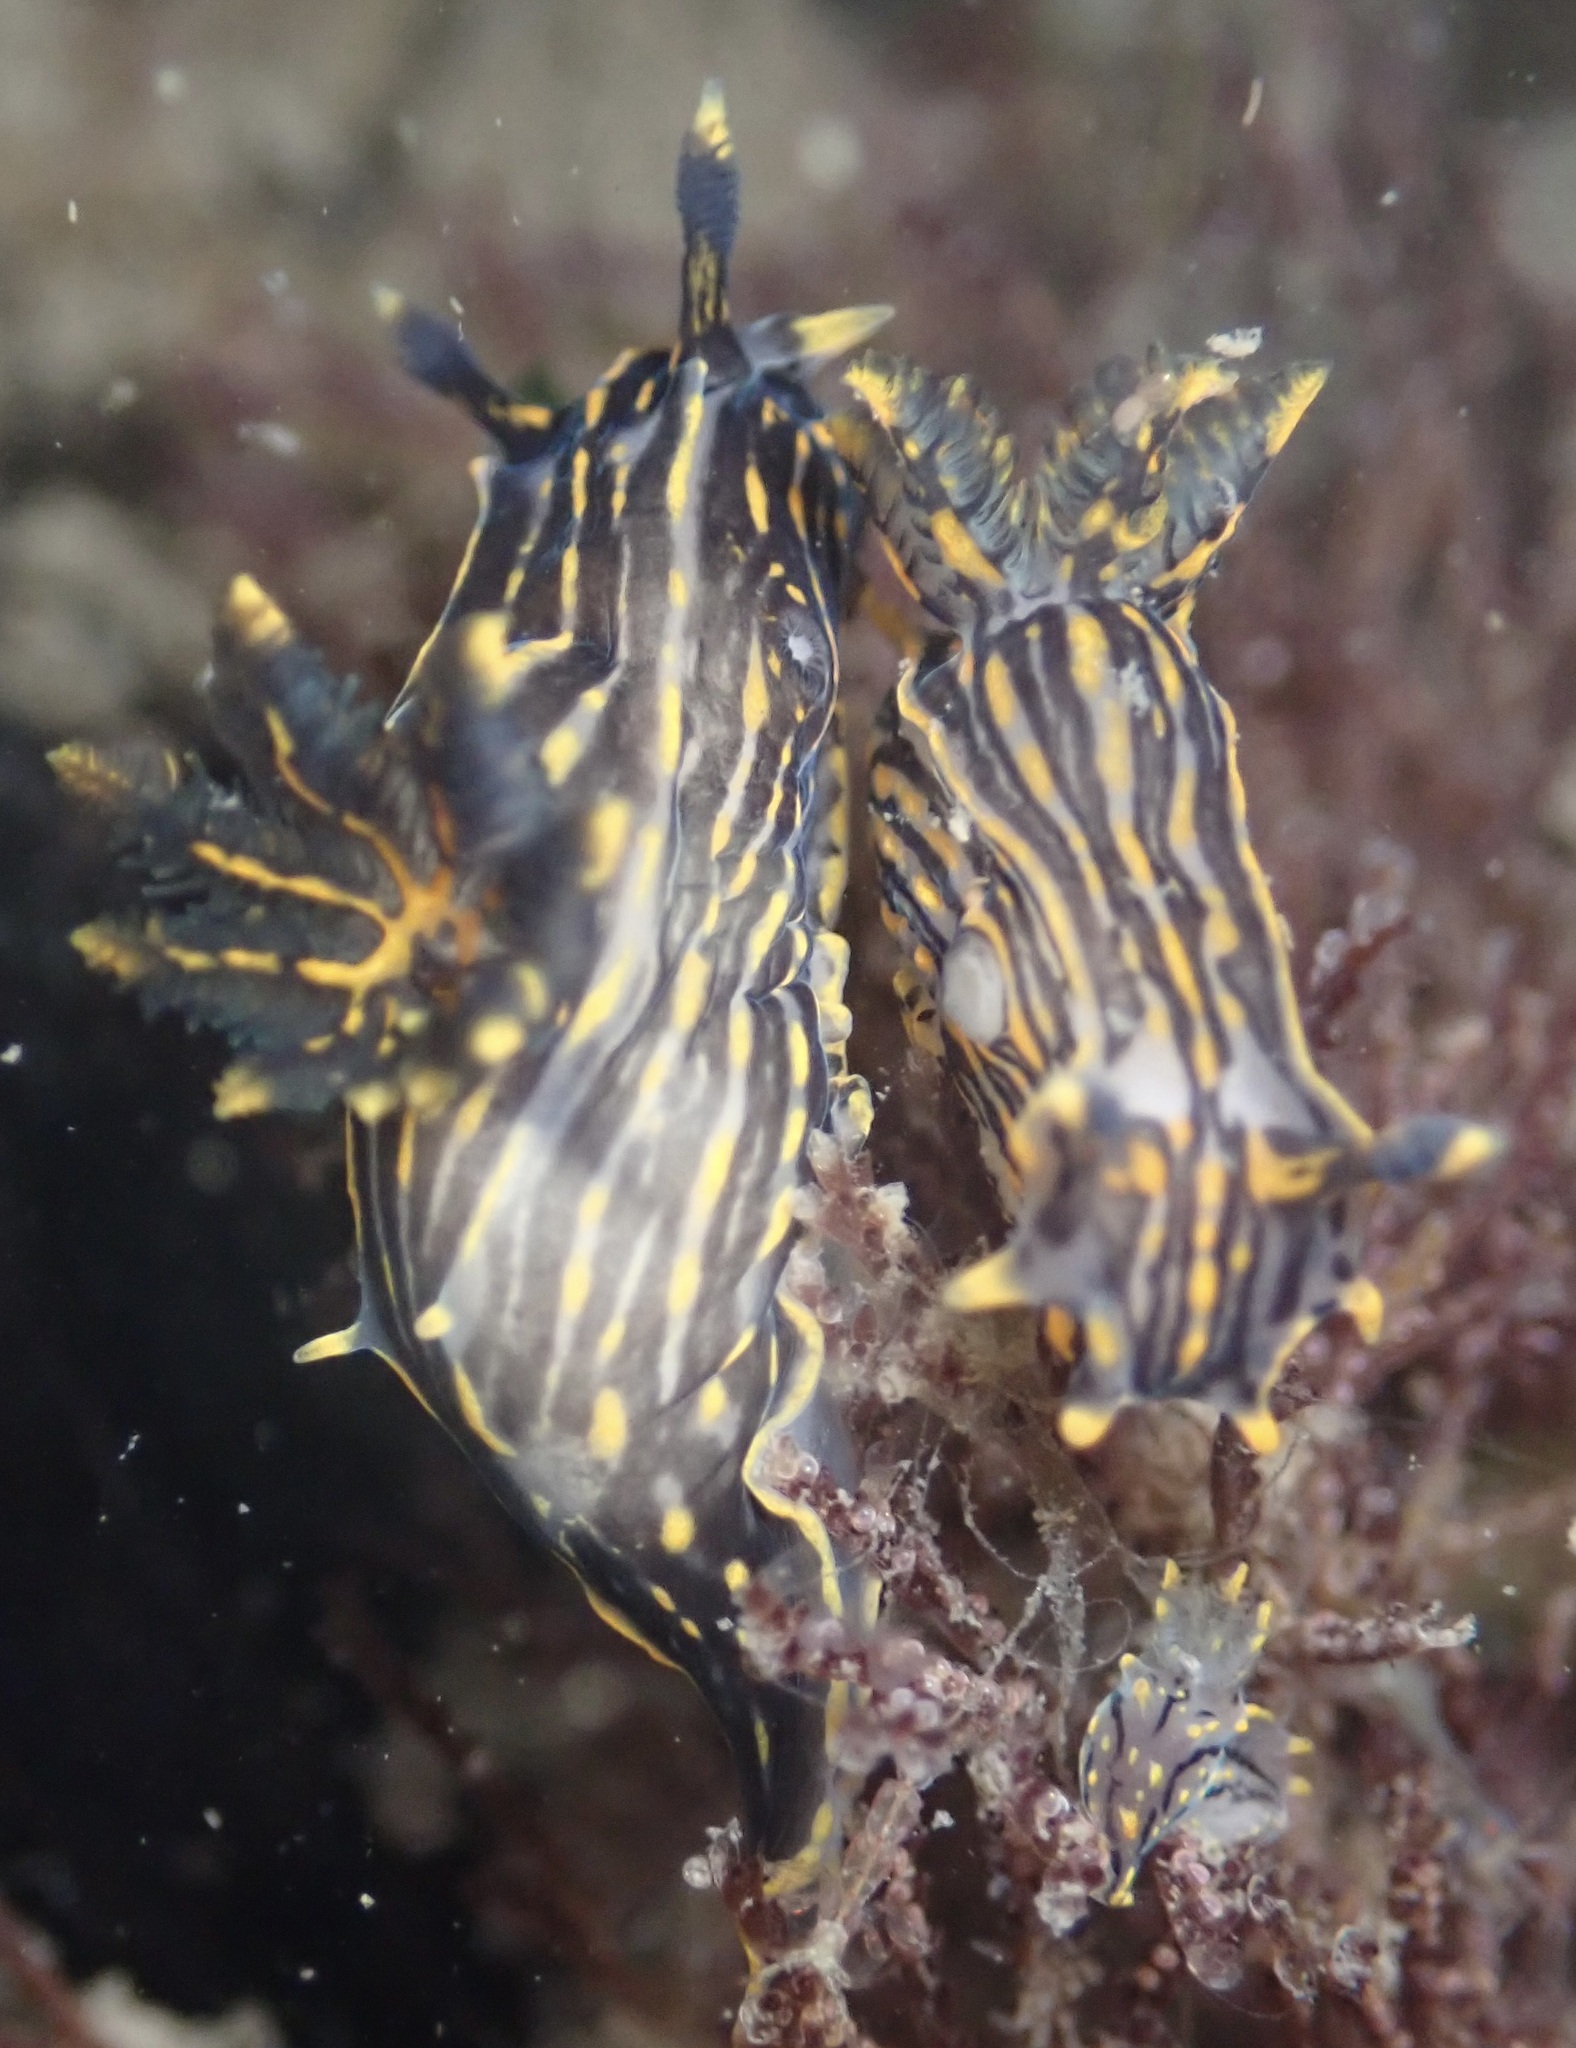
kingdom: Animalia
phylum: Mollusca
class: Gastropoda
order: Nudibranchia
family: Polyceridae
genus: Polycera
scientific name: Polycera atra
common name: Orange-spike polycera
